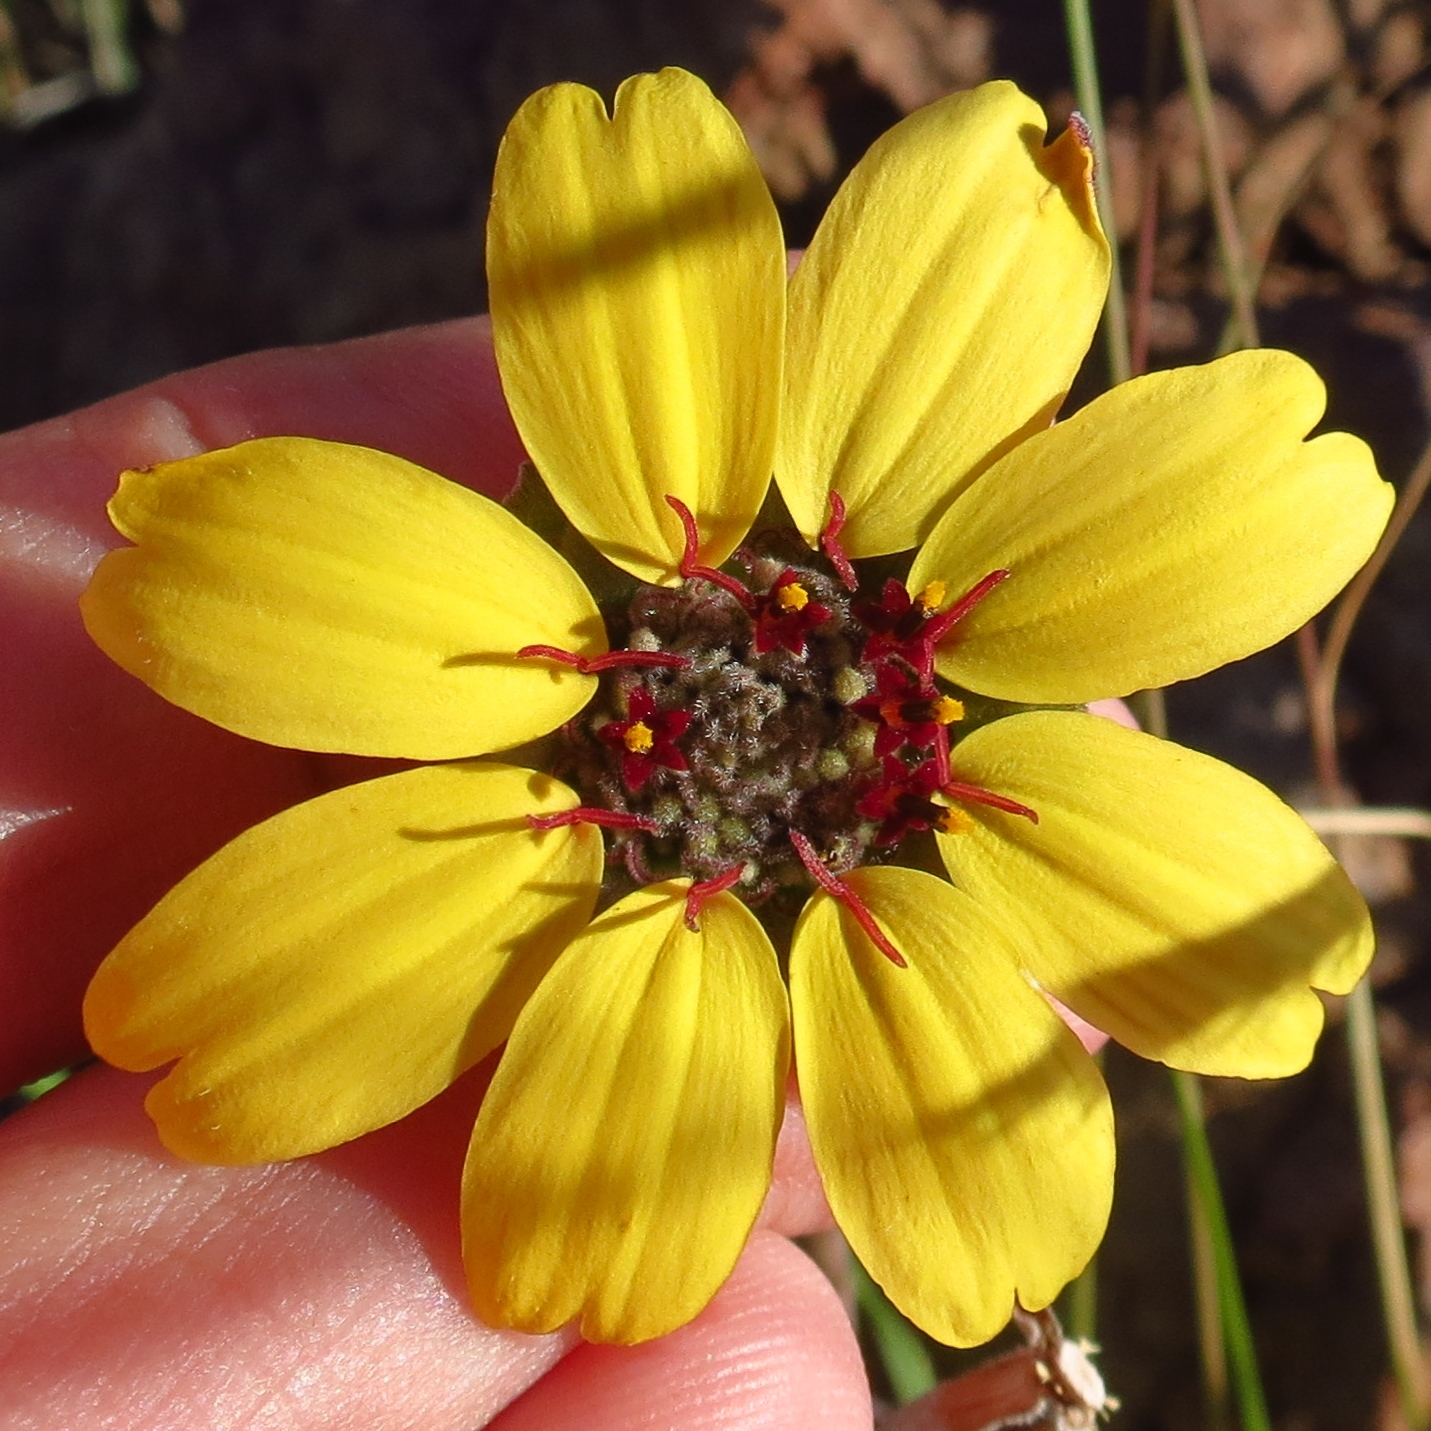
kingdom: Plantae
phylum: Tracheophyta
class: Magnoliopsida
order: Asterales
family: Asteraceae
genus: Berlandiera
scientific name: Berlandiera lyrata
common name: Chocolate-flower
